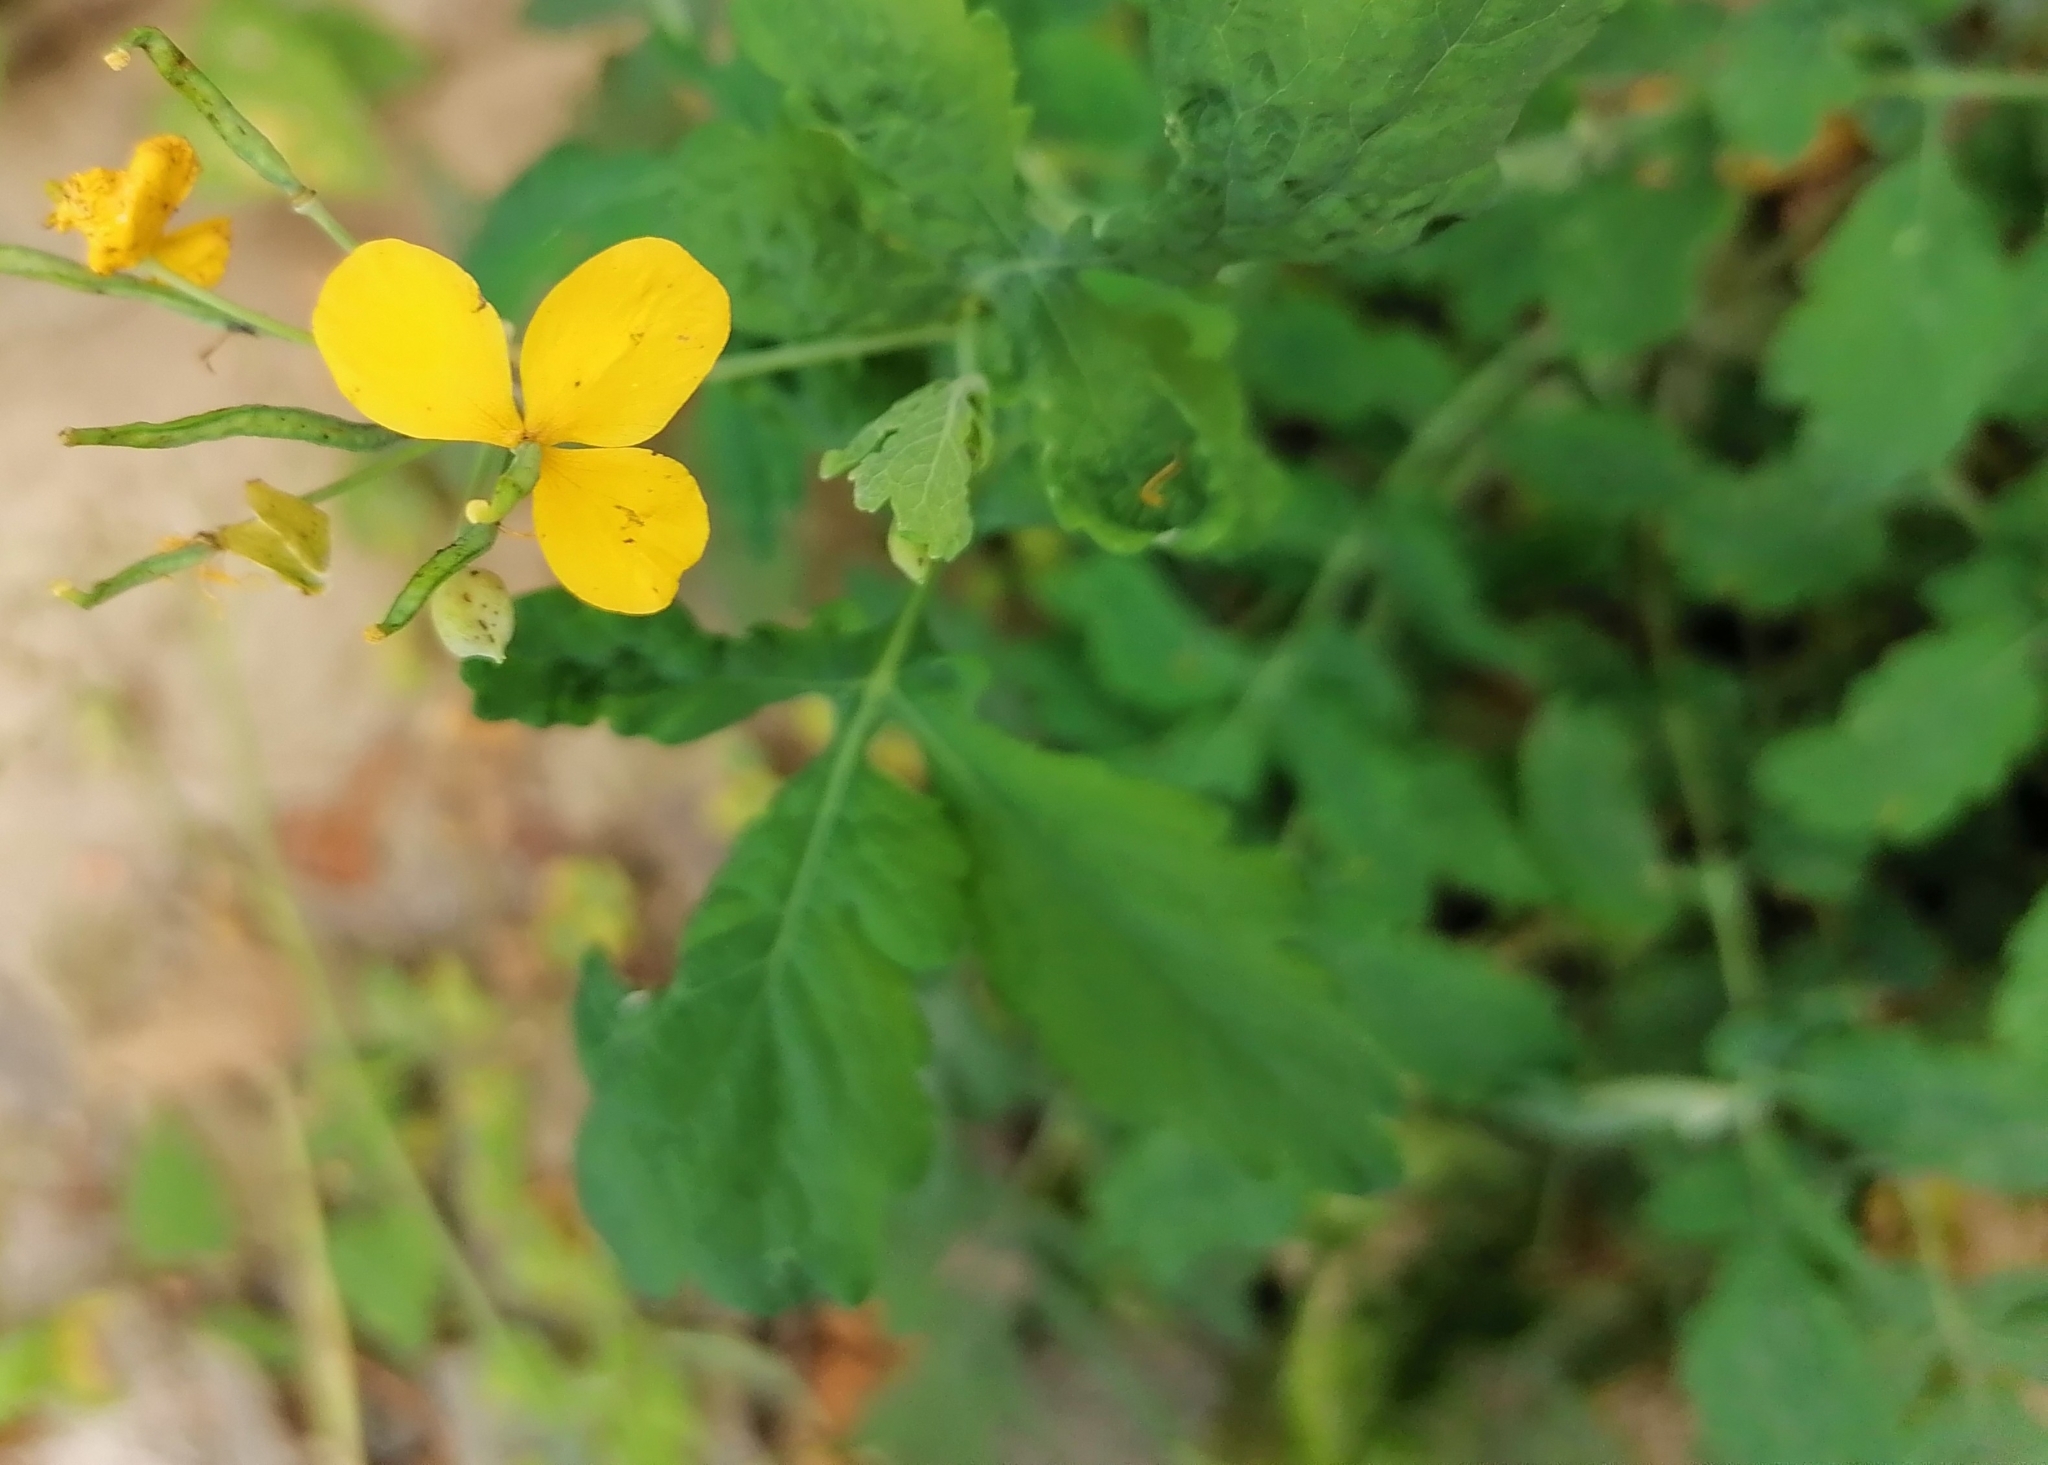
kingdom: Plantae
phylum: Tracheophyta
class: Magnoliopsida
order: Ranunculales
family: Papaveraceae
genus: Chelidonium
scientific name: Chelidonium majus
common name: Greater celandine
